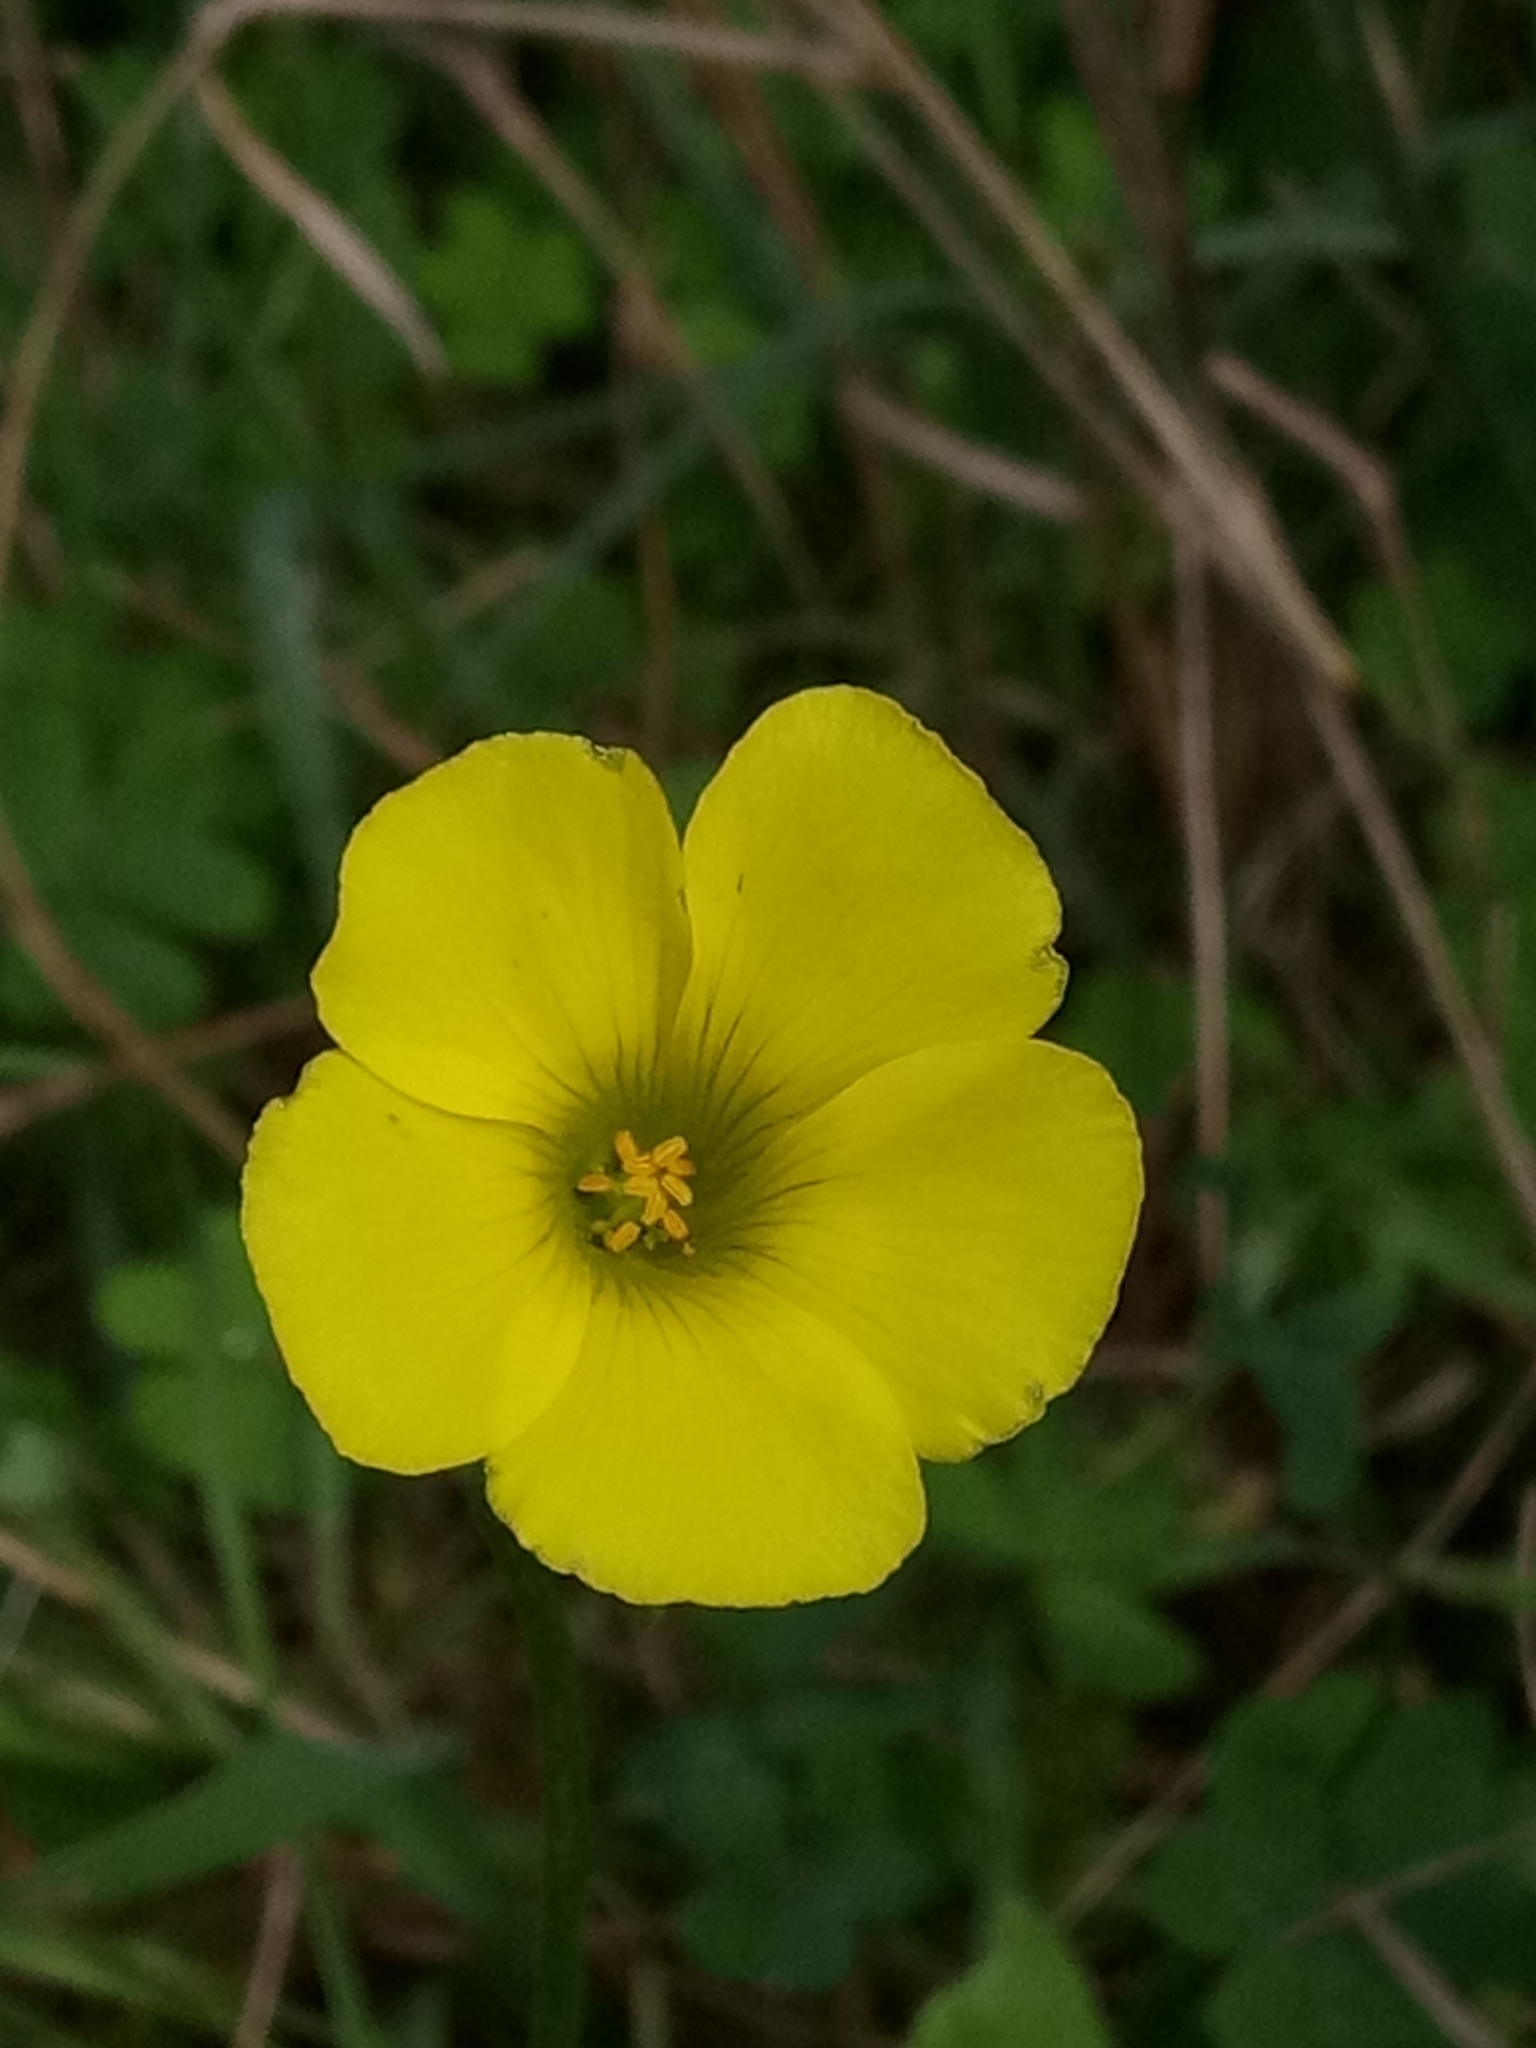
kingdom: Plantae
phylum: Tracheophyta
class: Magnoliopsida
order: Oxalidales
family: Oxalidaceae
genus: Oxalis
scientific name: Oxalis pes-caprae
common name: Bermuda-buttercup
